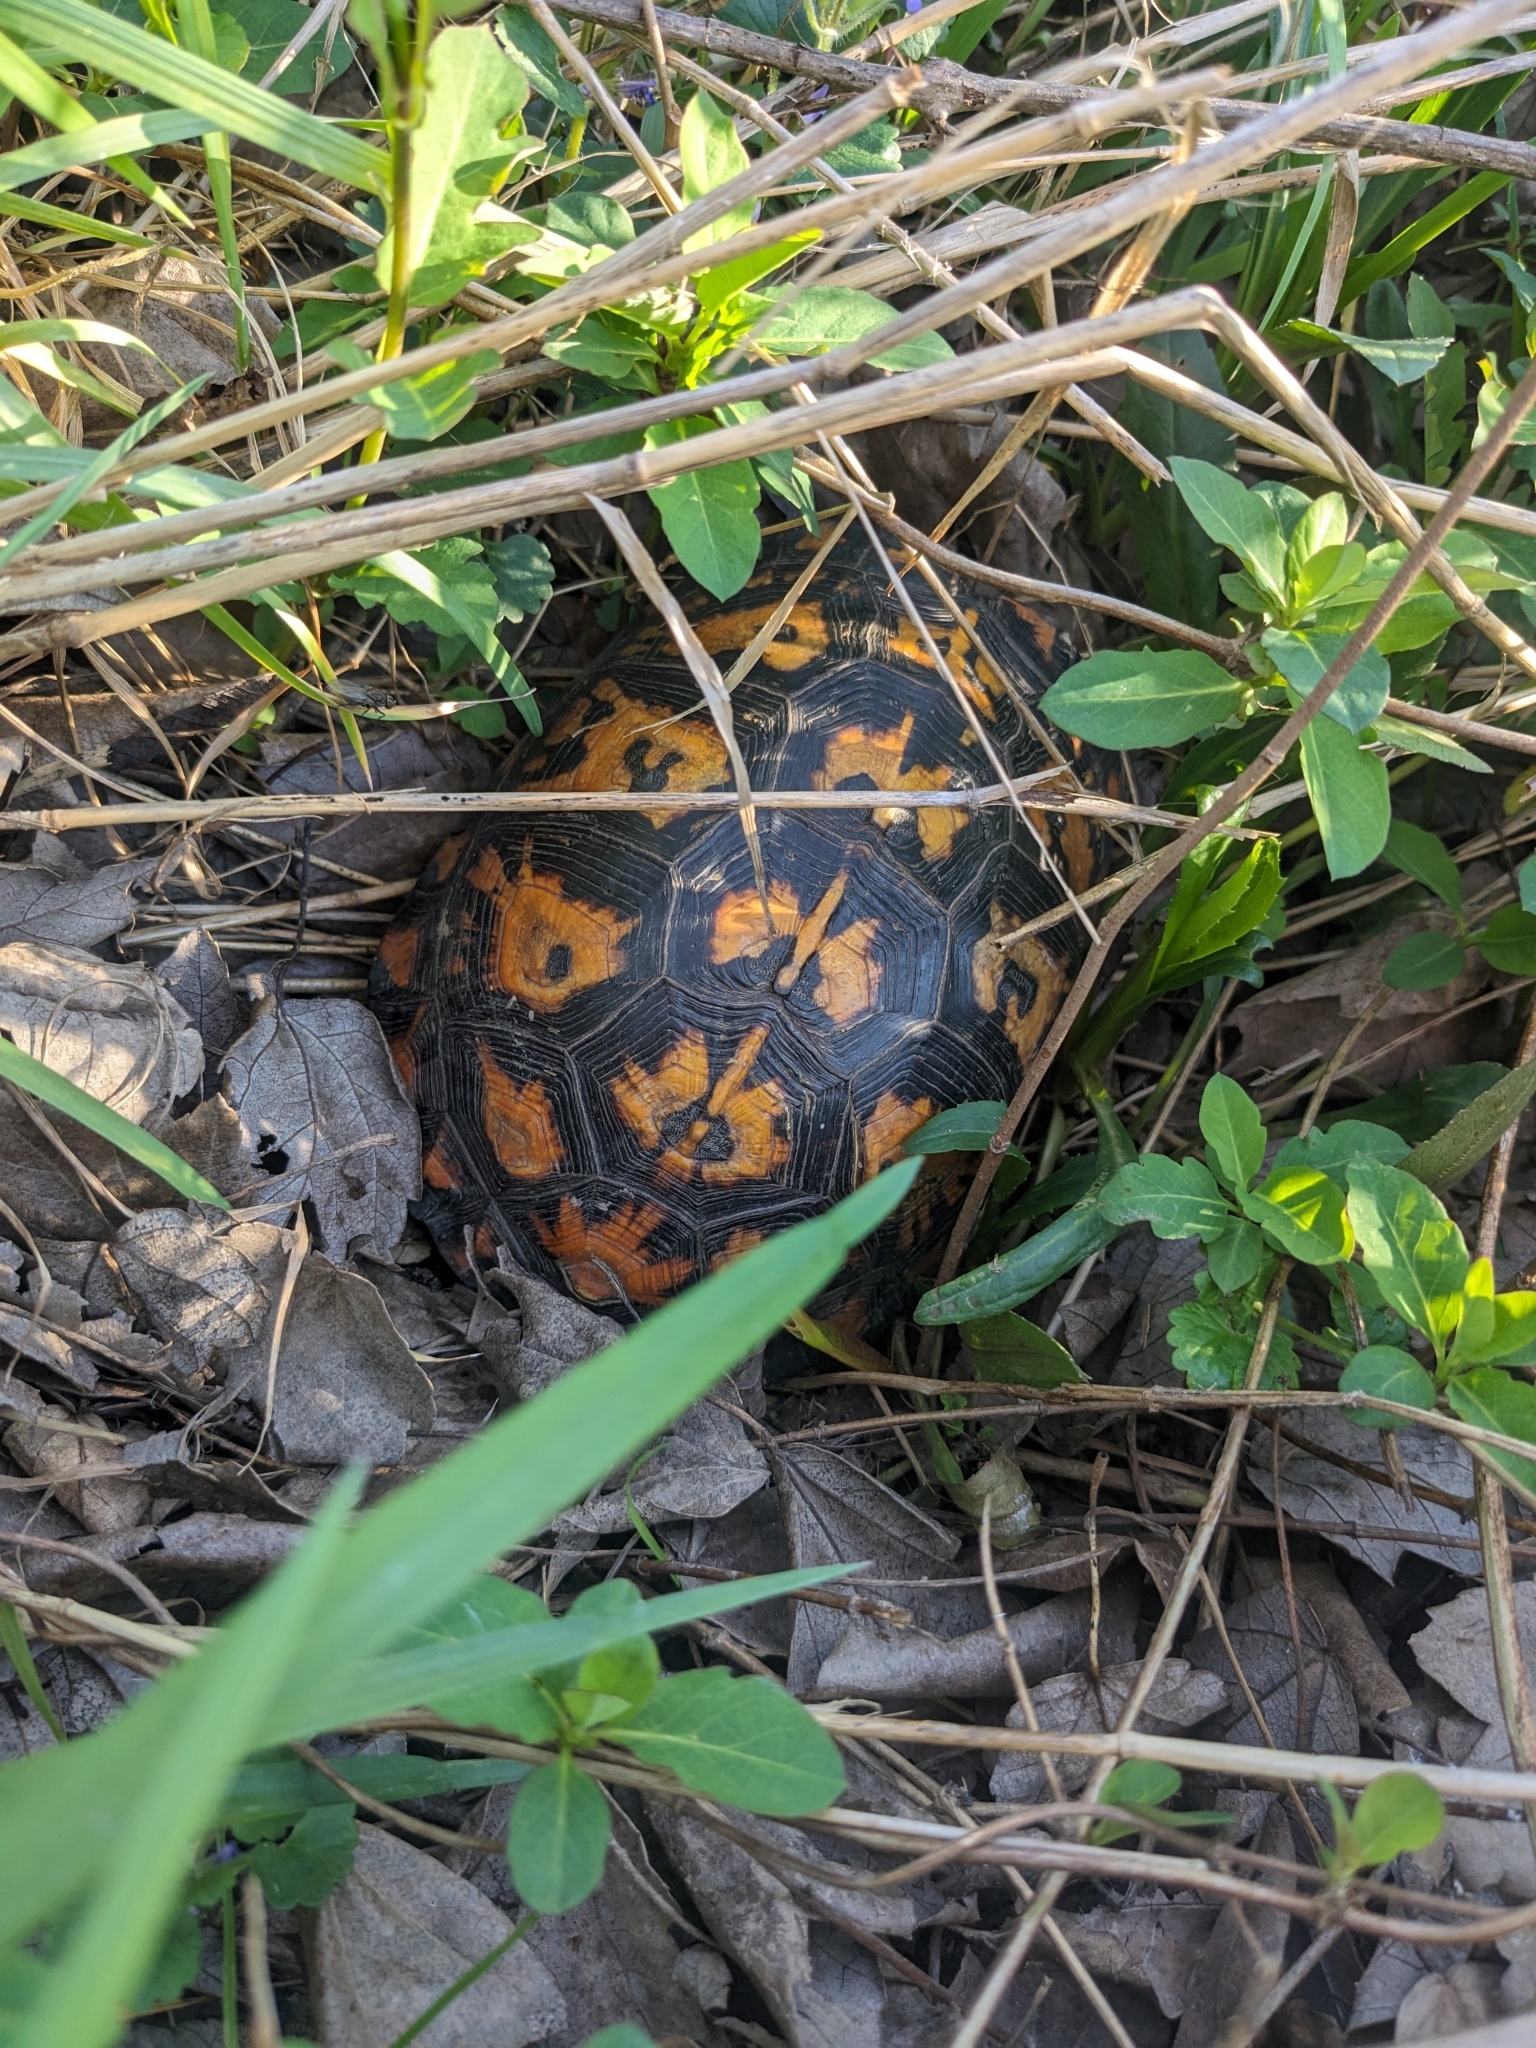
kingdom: Animalia
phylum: Chordata
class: Testudines
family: Emydidae
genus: Terrapene
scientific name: Terrapene carolina
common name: Common box turtle
